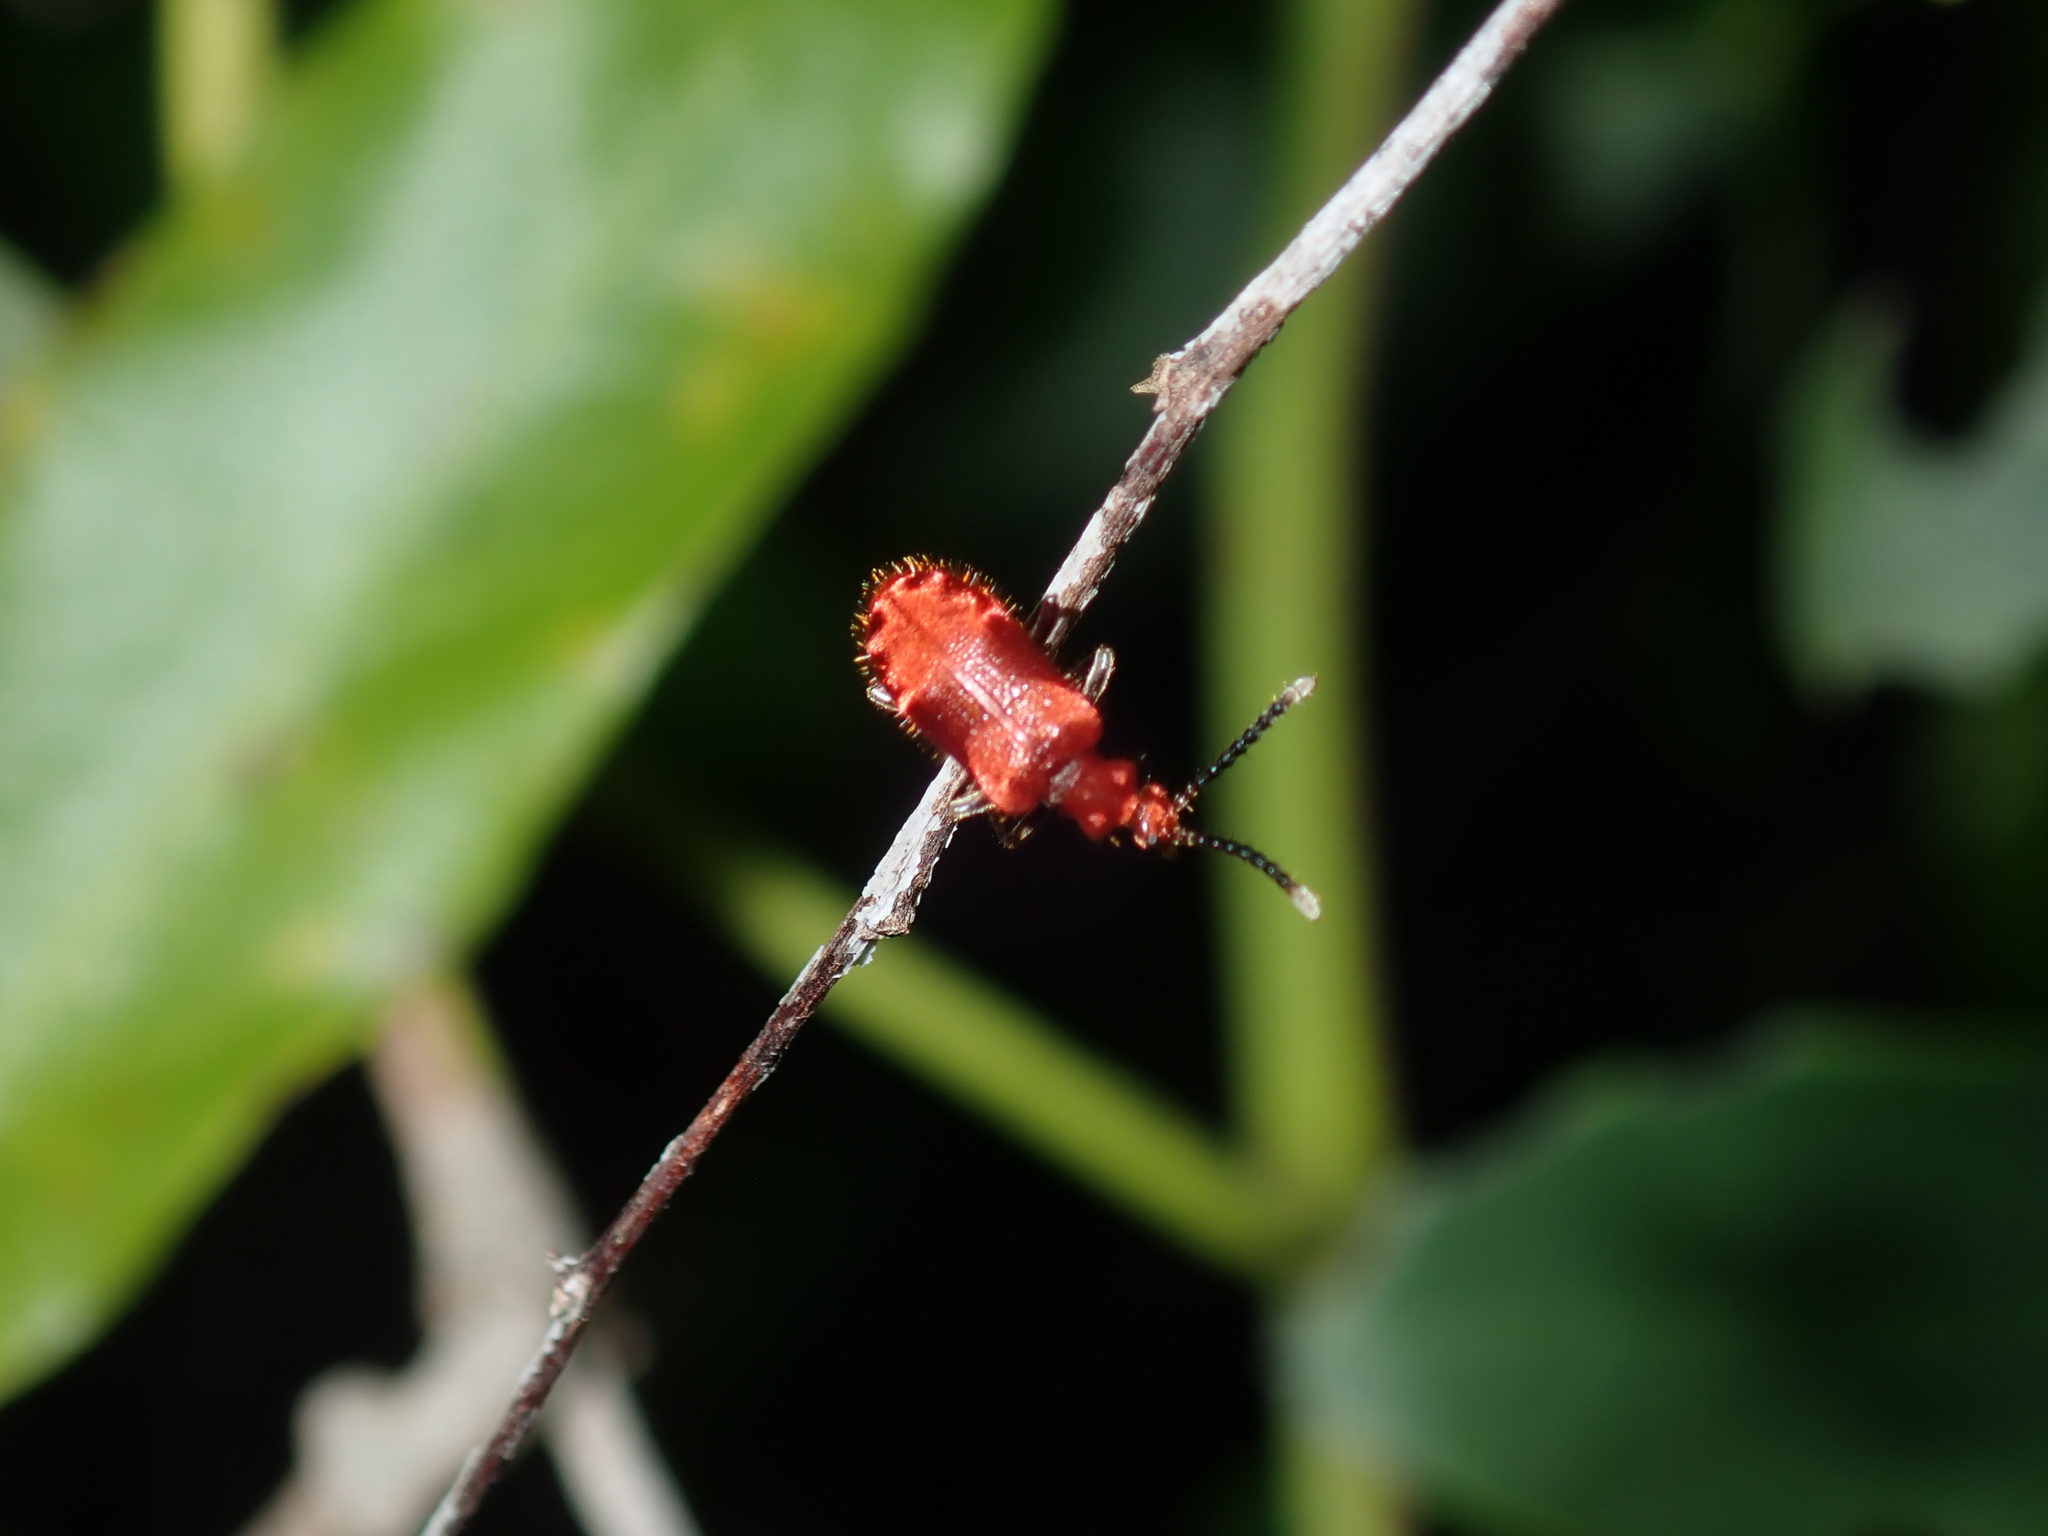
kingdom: Animalia
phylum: Arthropoda
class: Insecta
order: Coleoptera
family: Anthicidae
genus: Lemodes
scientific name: Lemodes
